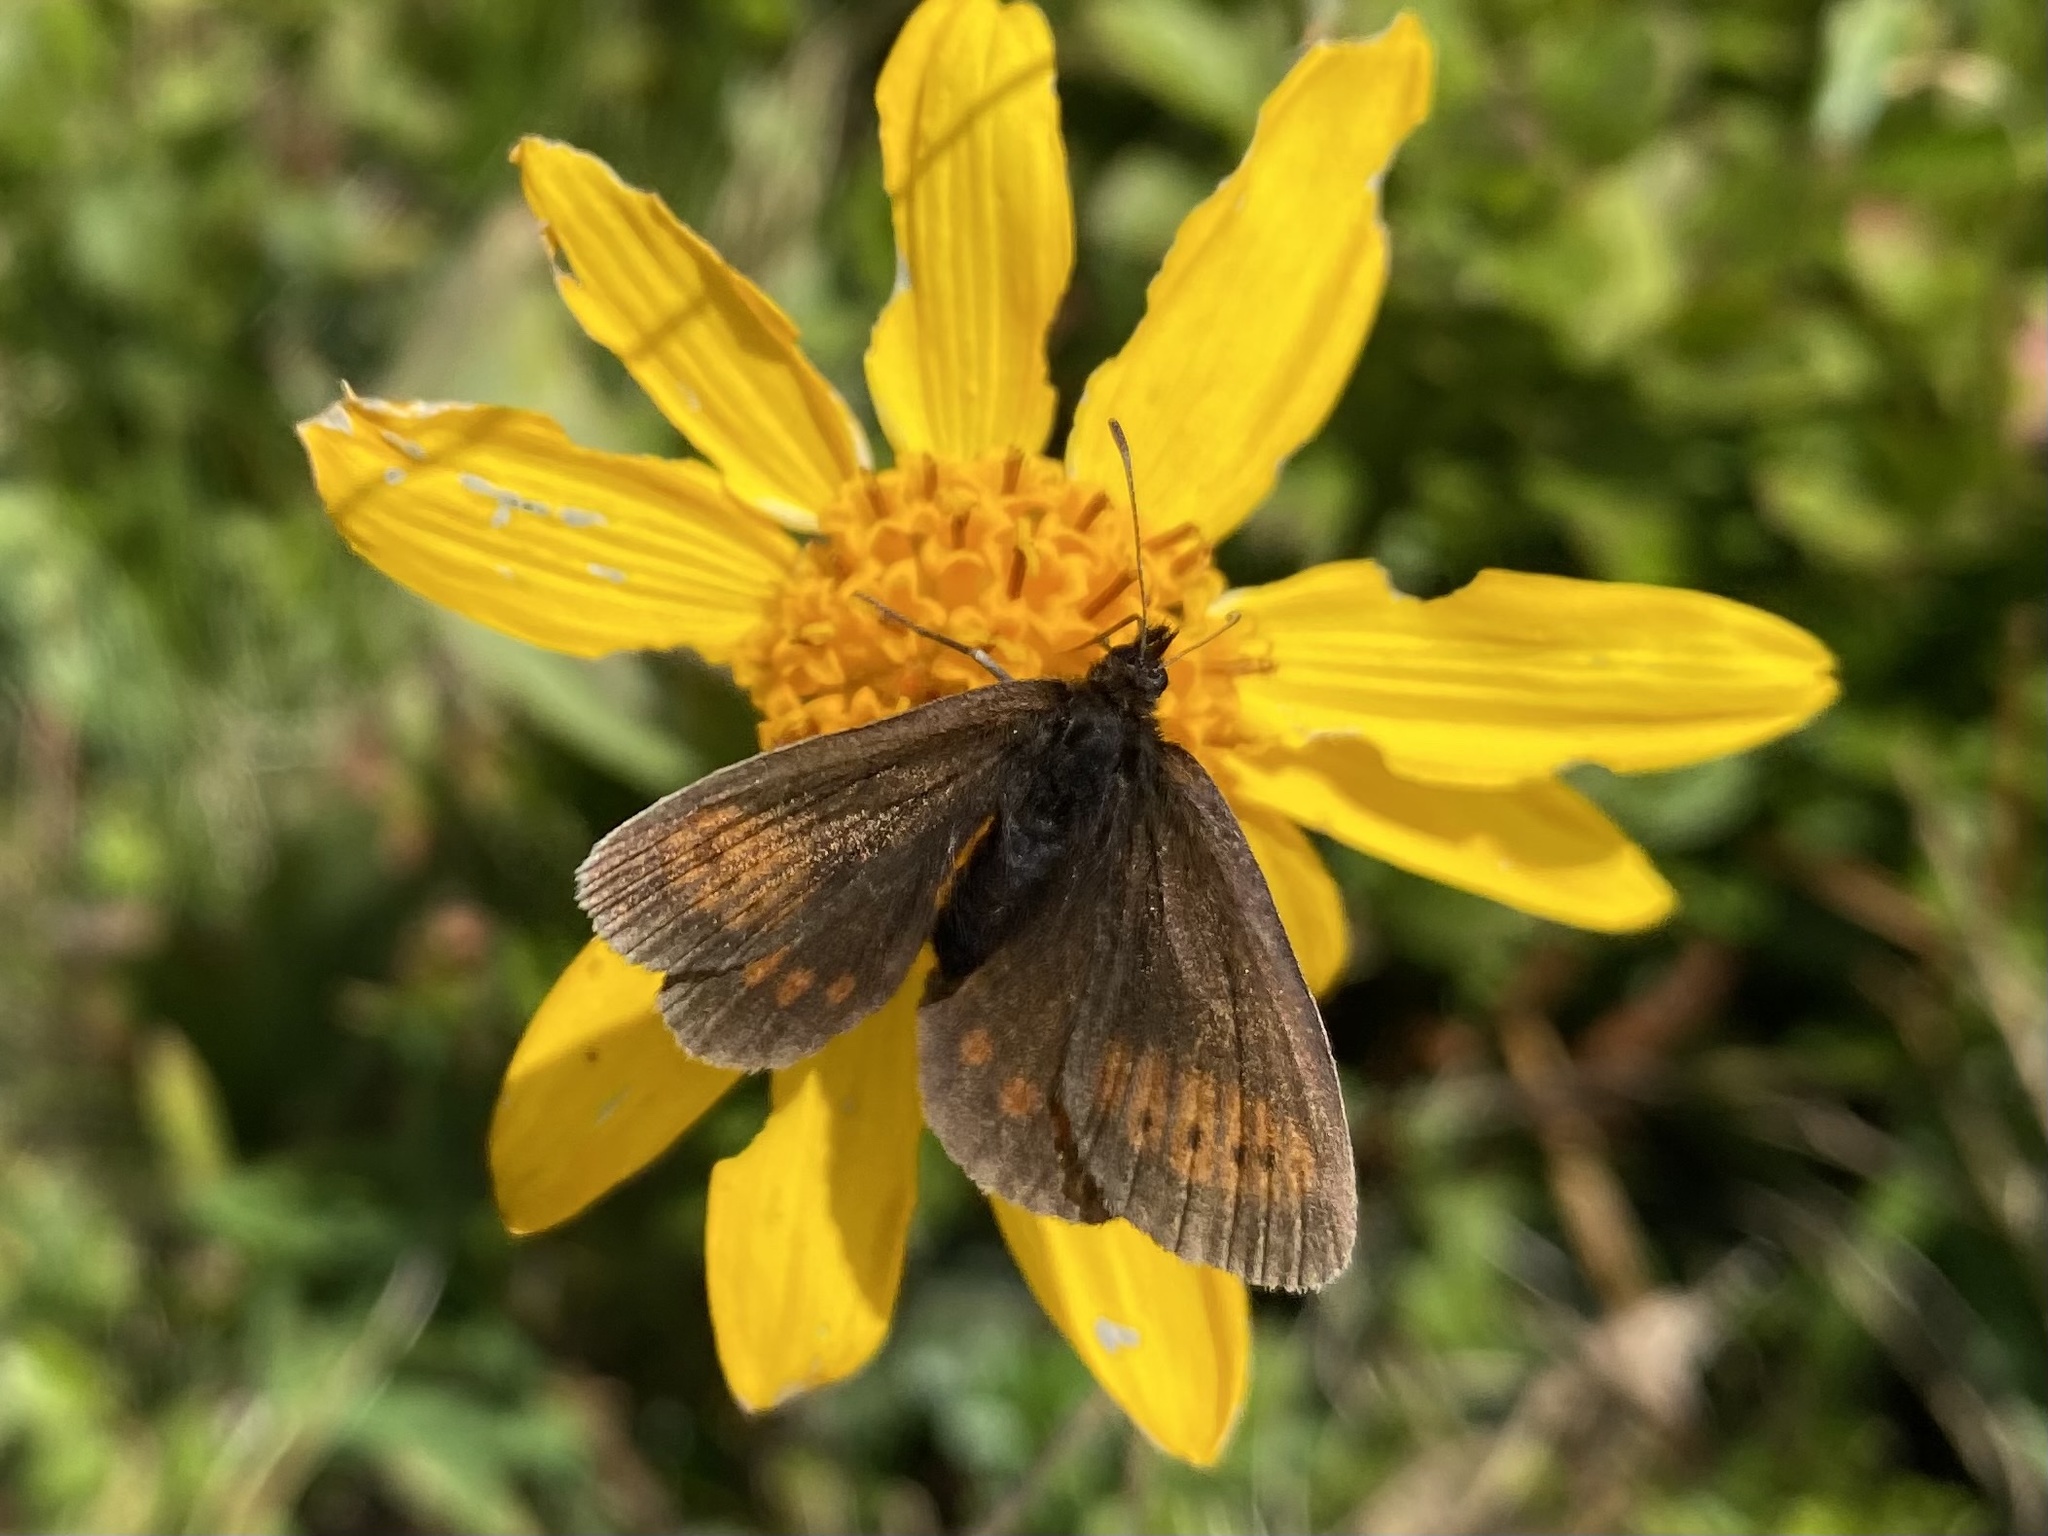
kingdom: Animalia
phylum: Arthropoda
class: Insecta
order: Lepidoptera
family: Nymphalidae
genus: Erebia
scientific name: Erebia
